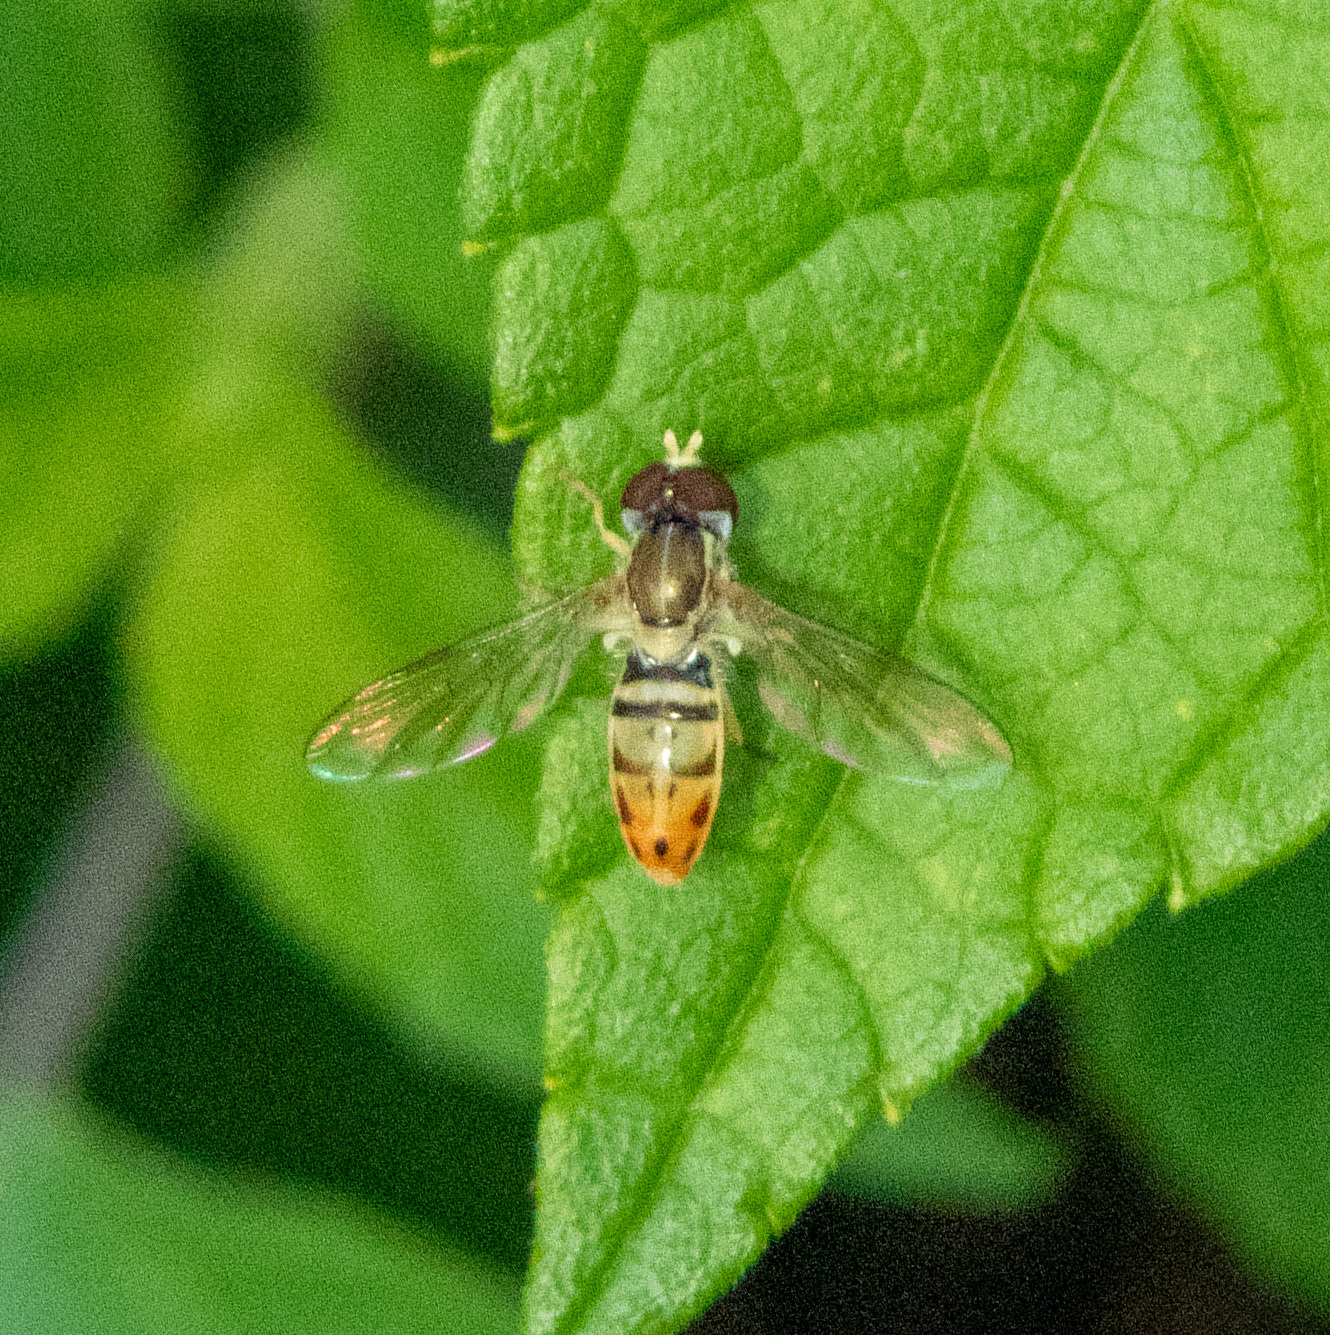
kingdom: Animalia
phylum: Arthropoda
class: Insecta
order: Diptera
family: Syrphidae
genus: Toxomerus
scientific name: Toxomerus marginatus
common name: Syrphid fly
